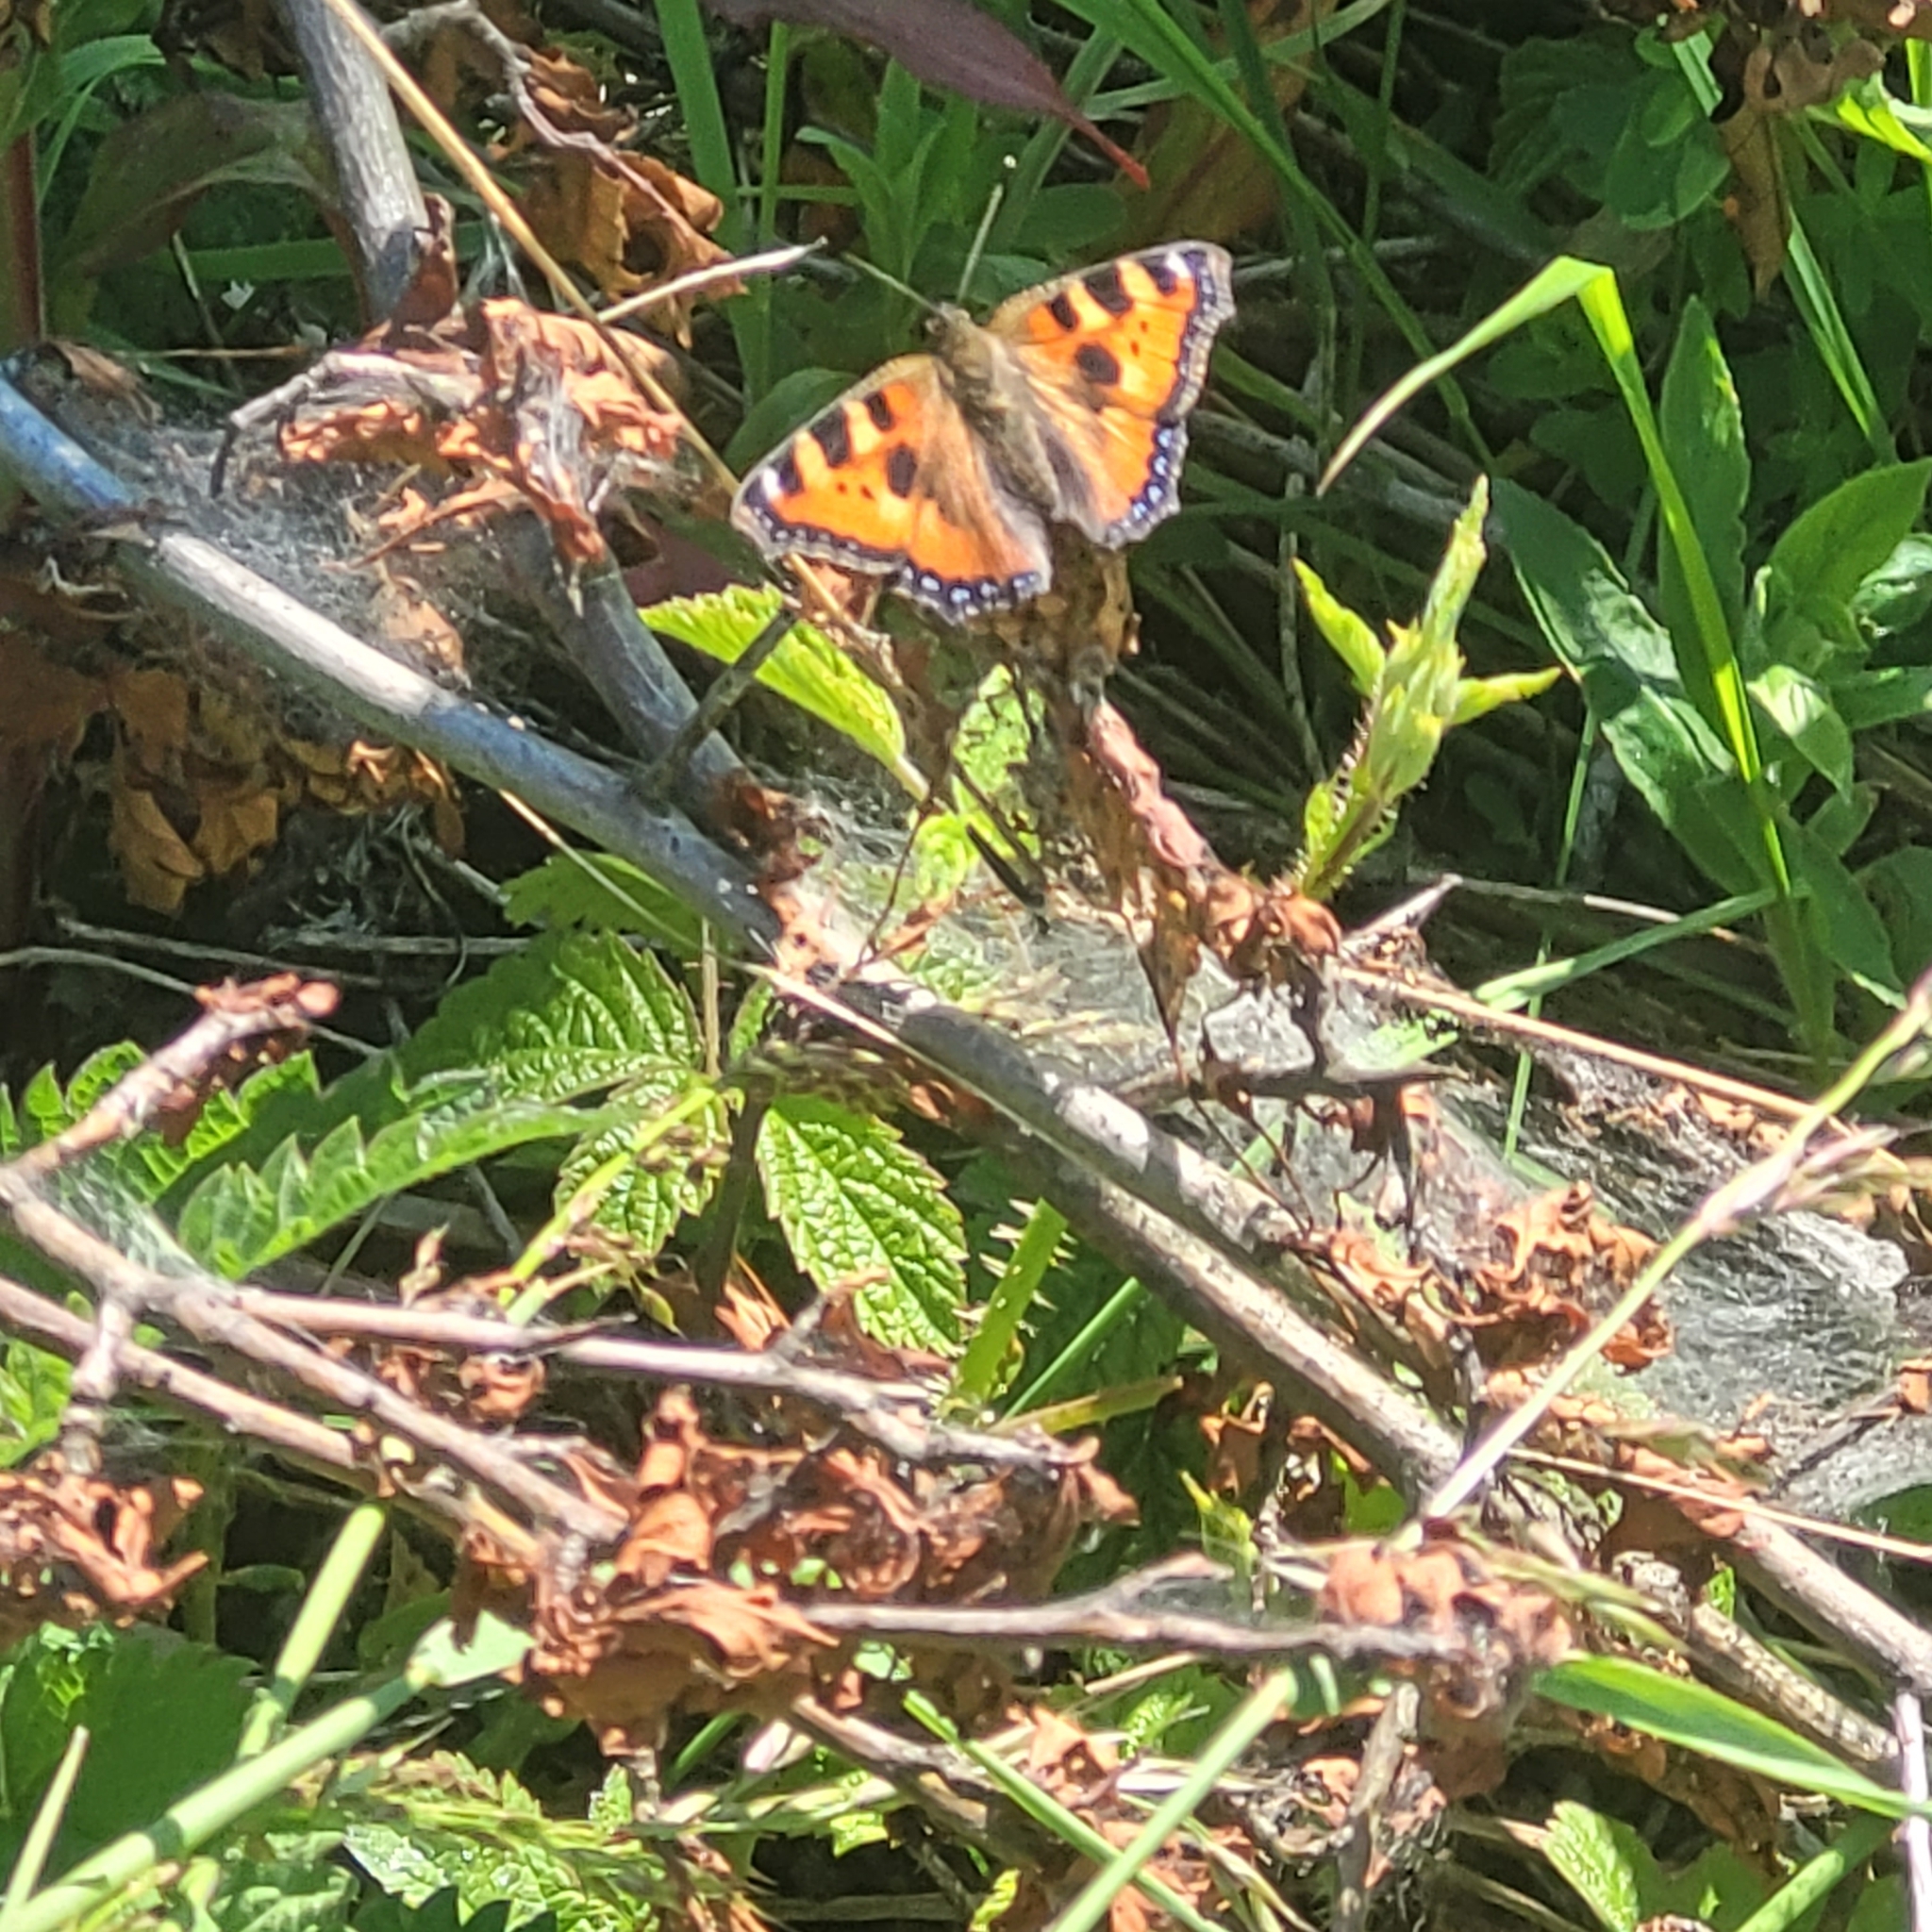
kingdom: Animalia
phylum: Arthropoda
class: Insecta
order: Lepidoptera
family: Nymphalidae
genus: Aglais
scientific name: Aglais urticae
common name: Small tortoiseshell
